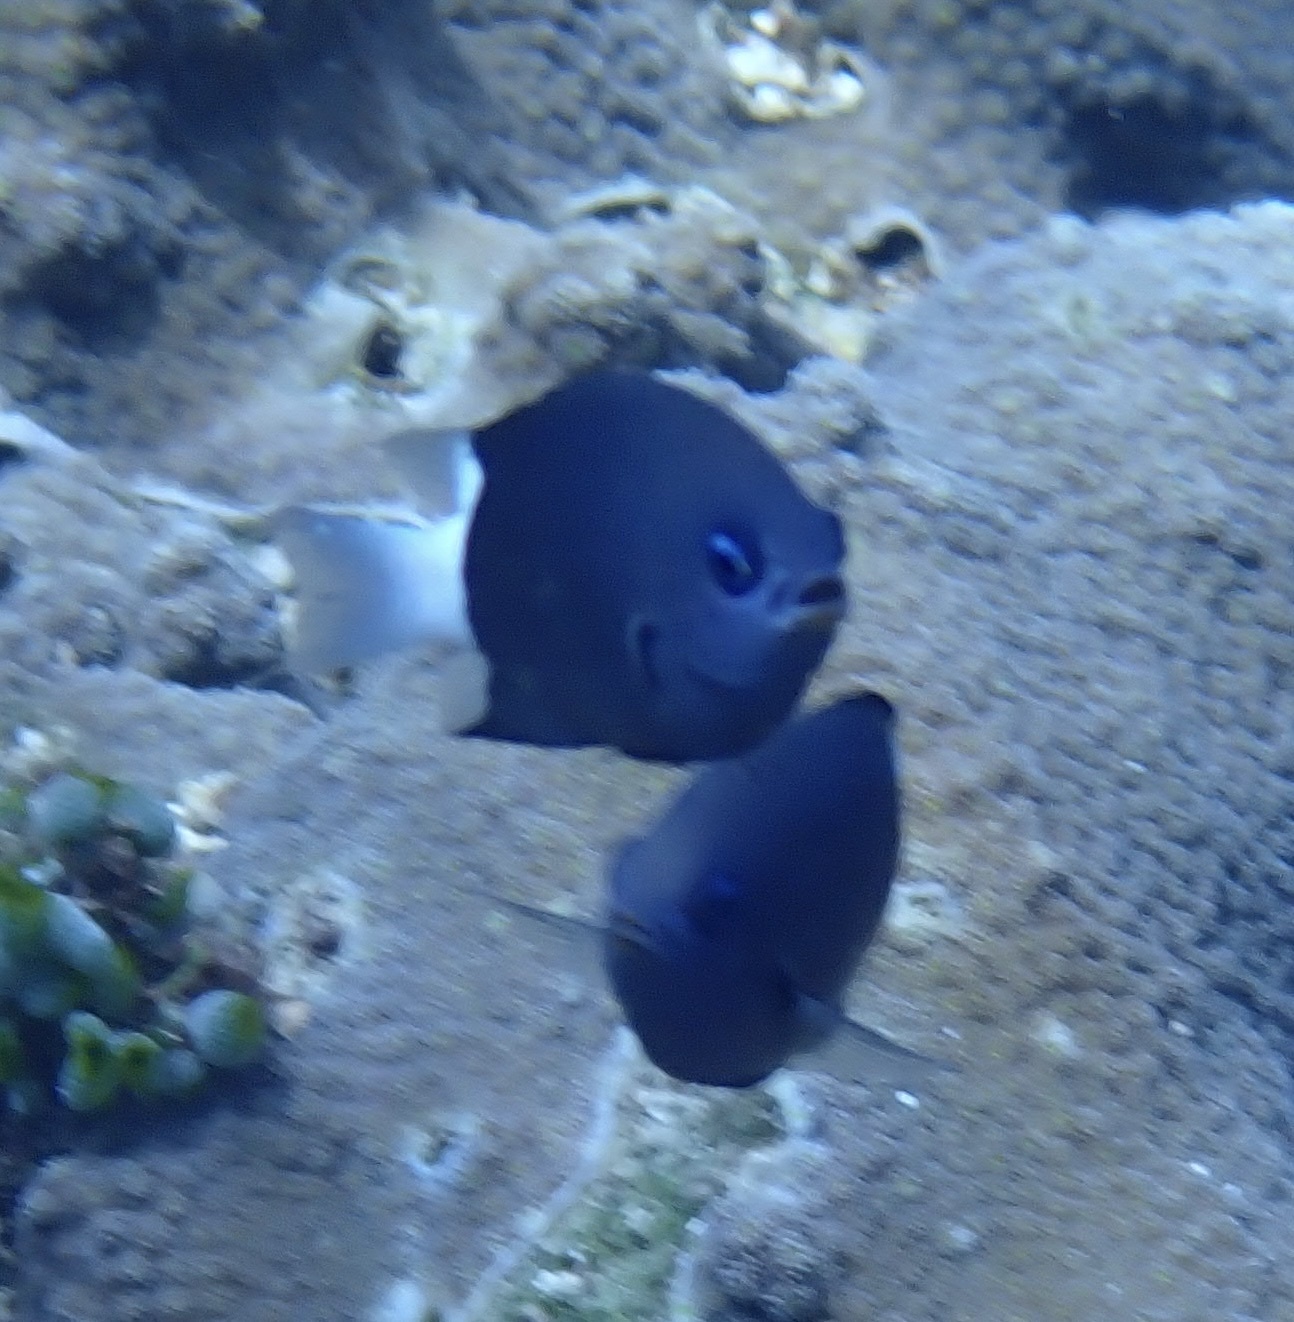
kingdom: Animalia
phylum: Chordata
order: Perciformes
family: Pomacentridae
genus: Pycnochromis
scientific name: Pycnochromis margaritifer
